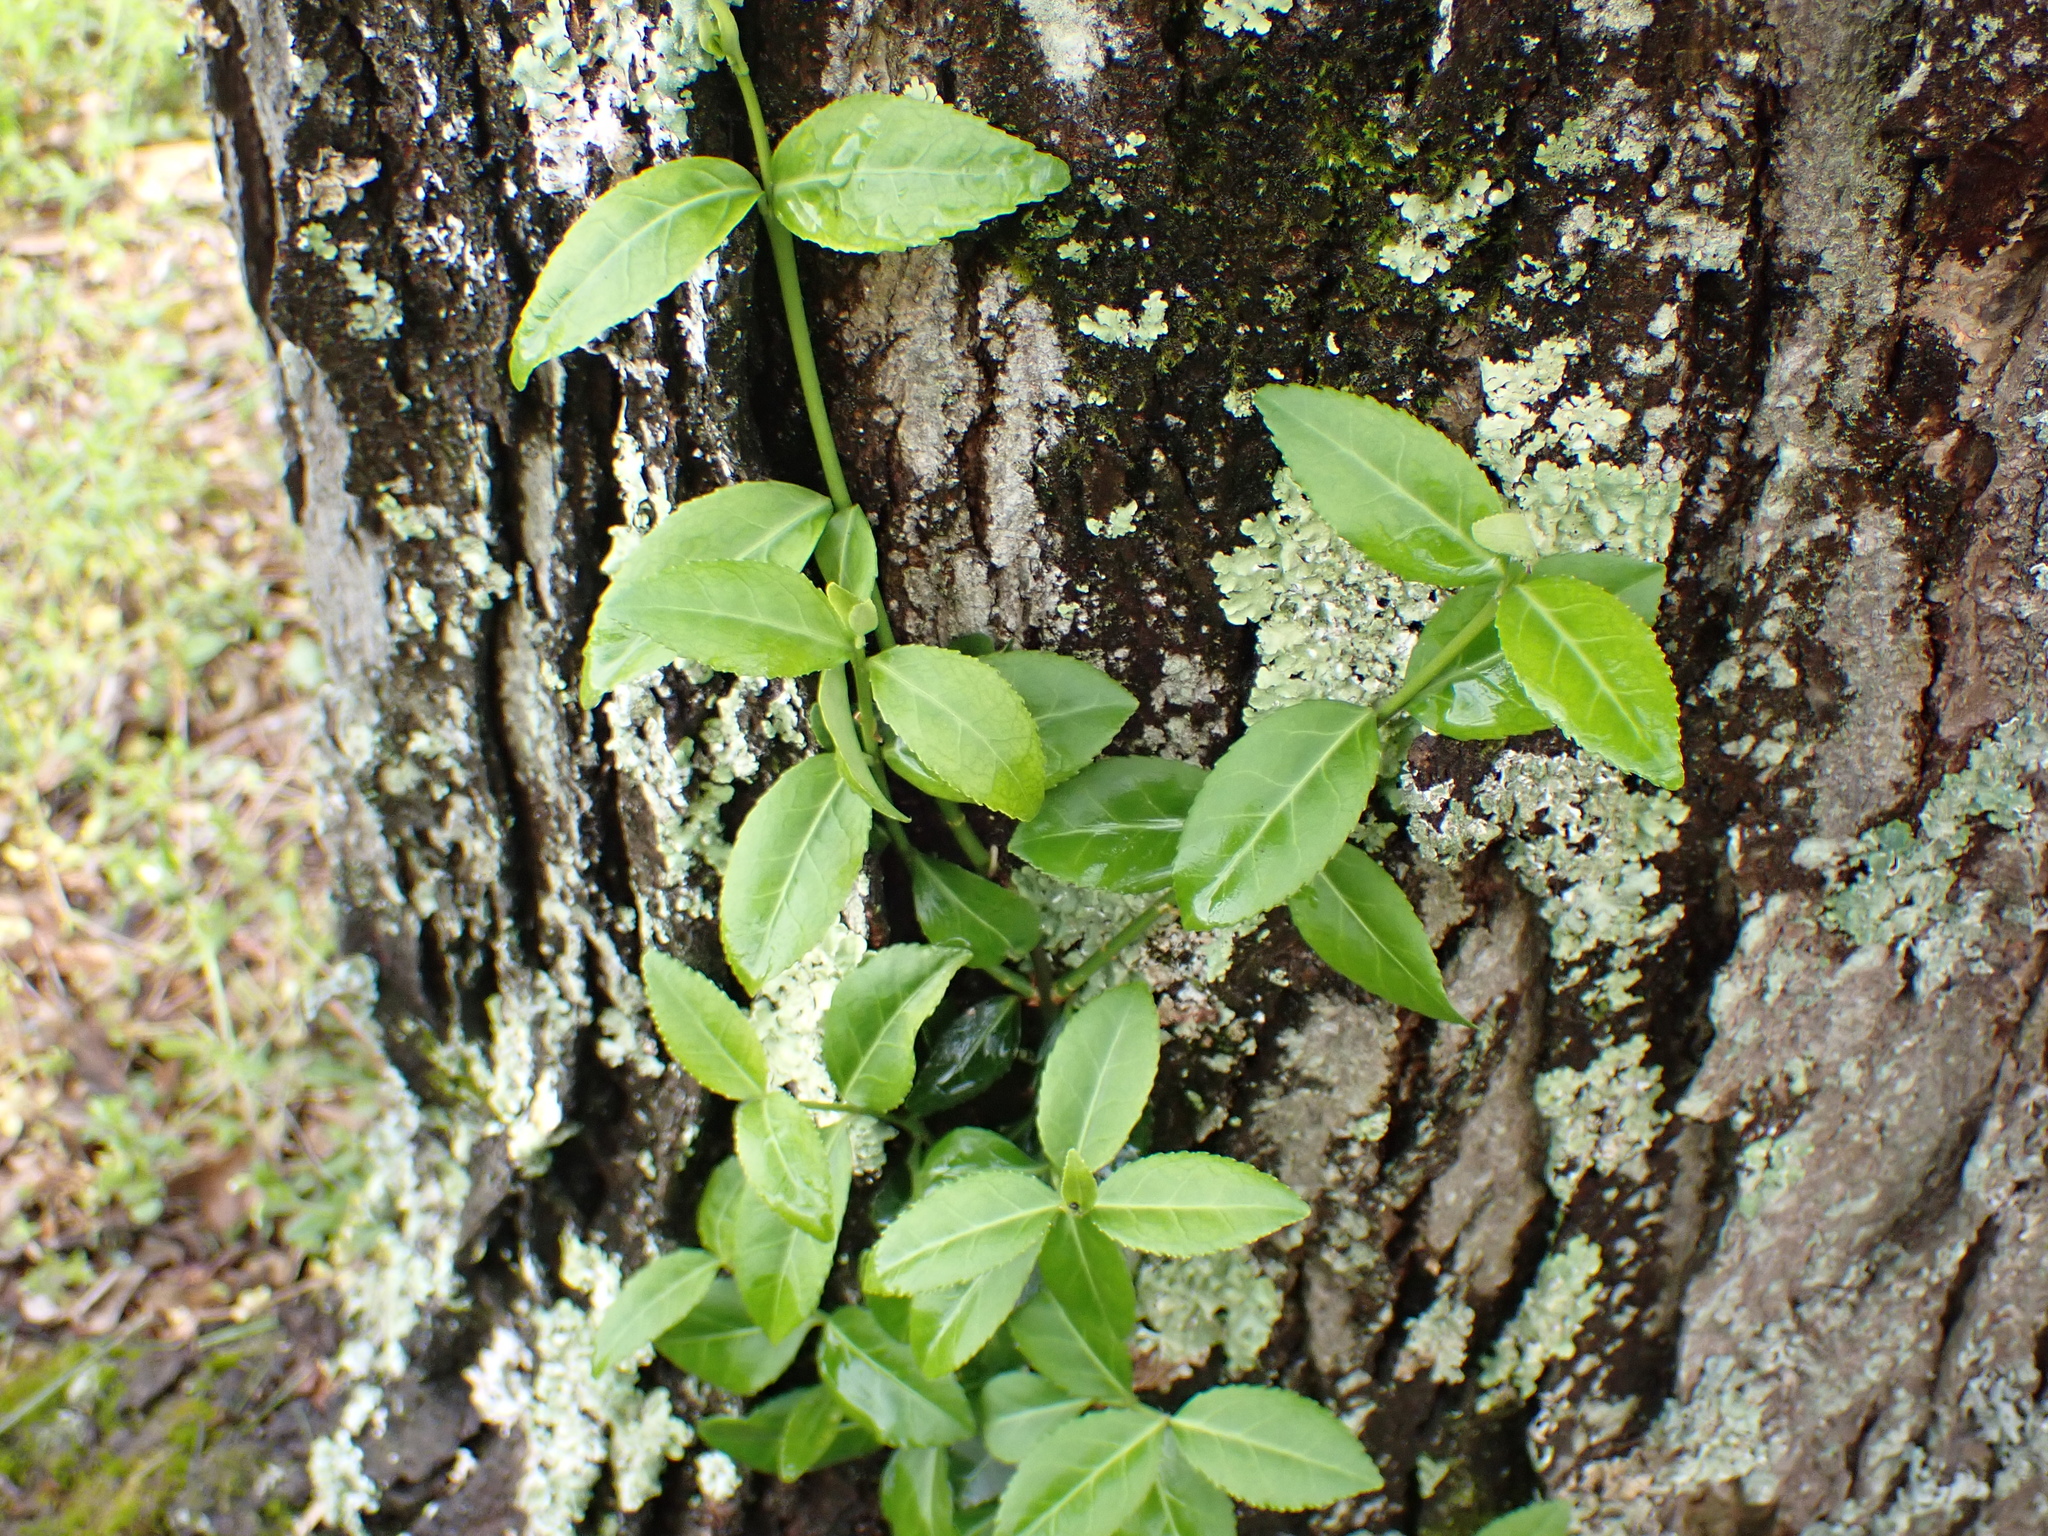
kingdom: Plantae
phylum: Tracheophyta
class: Magnoliopsida
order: Celastrales
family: Celastraceae
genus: Euonymus
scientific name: Euonymus fortunei
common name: Climbing euonymus
